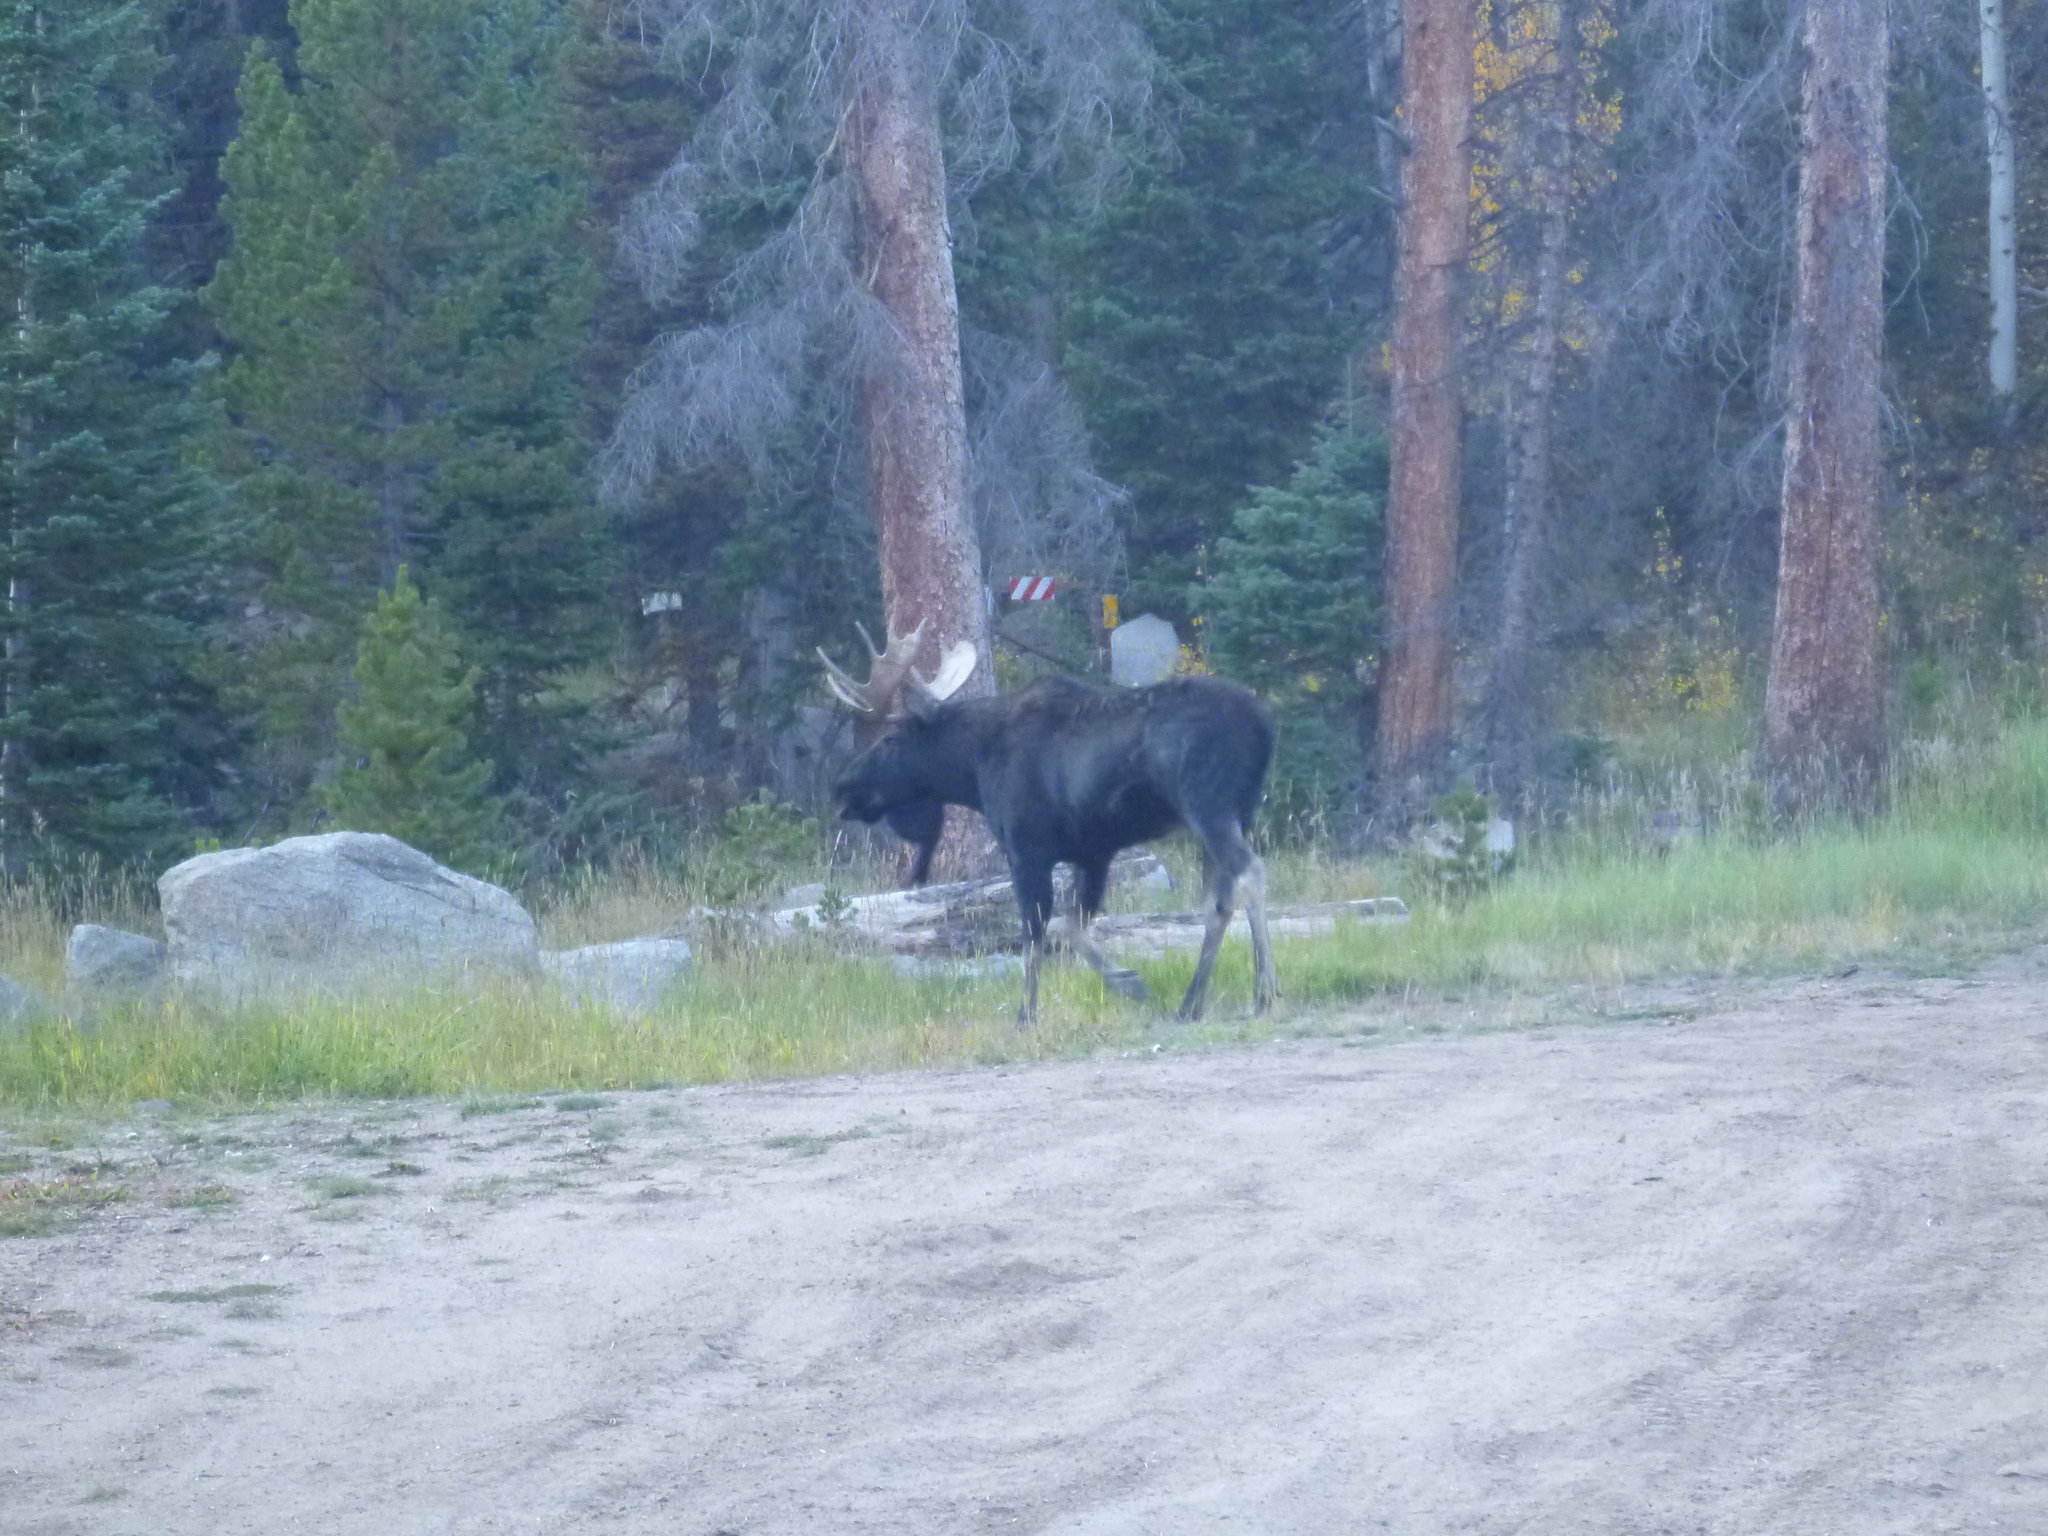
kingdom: Animalia
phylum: Chordata
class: Mammalia
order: Artiodactyla
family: Cervidae
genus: Alces
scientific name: Alces alces
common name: Moose
